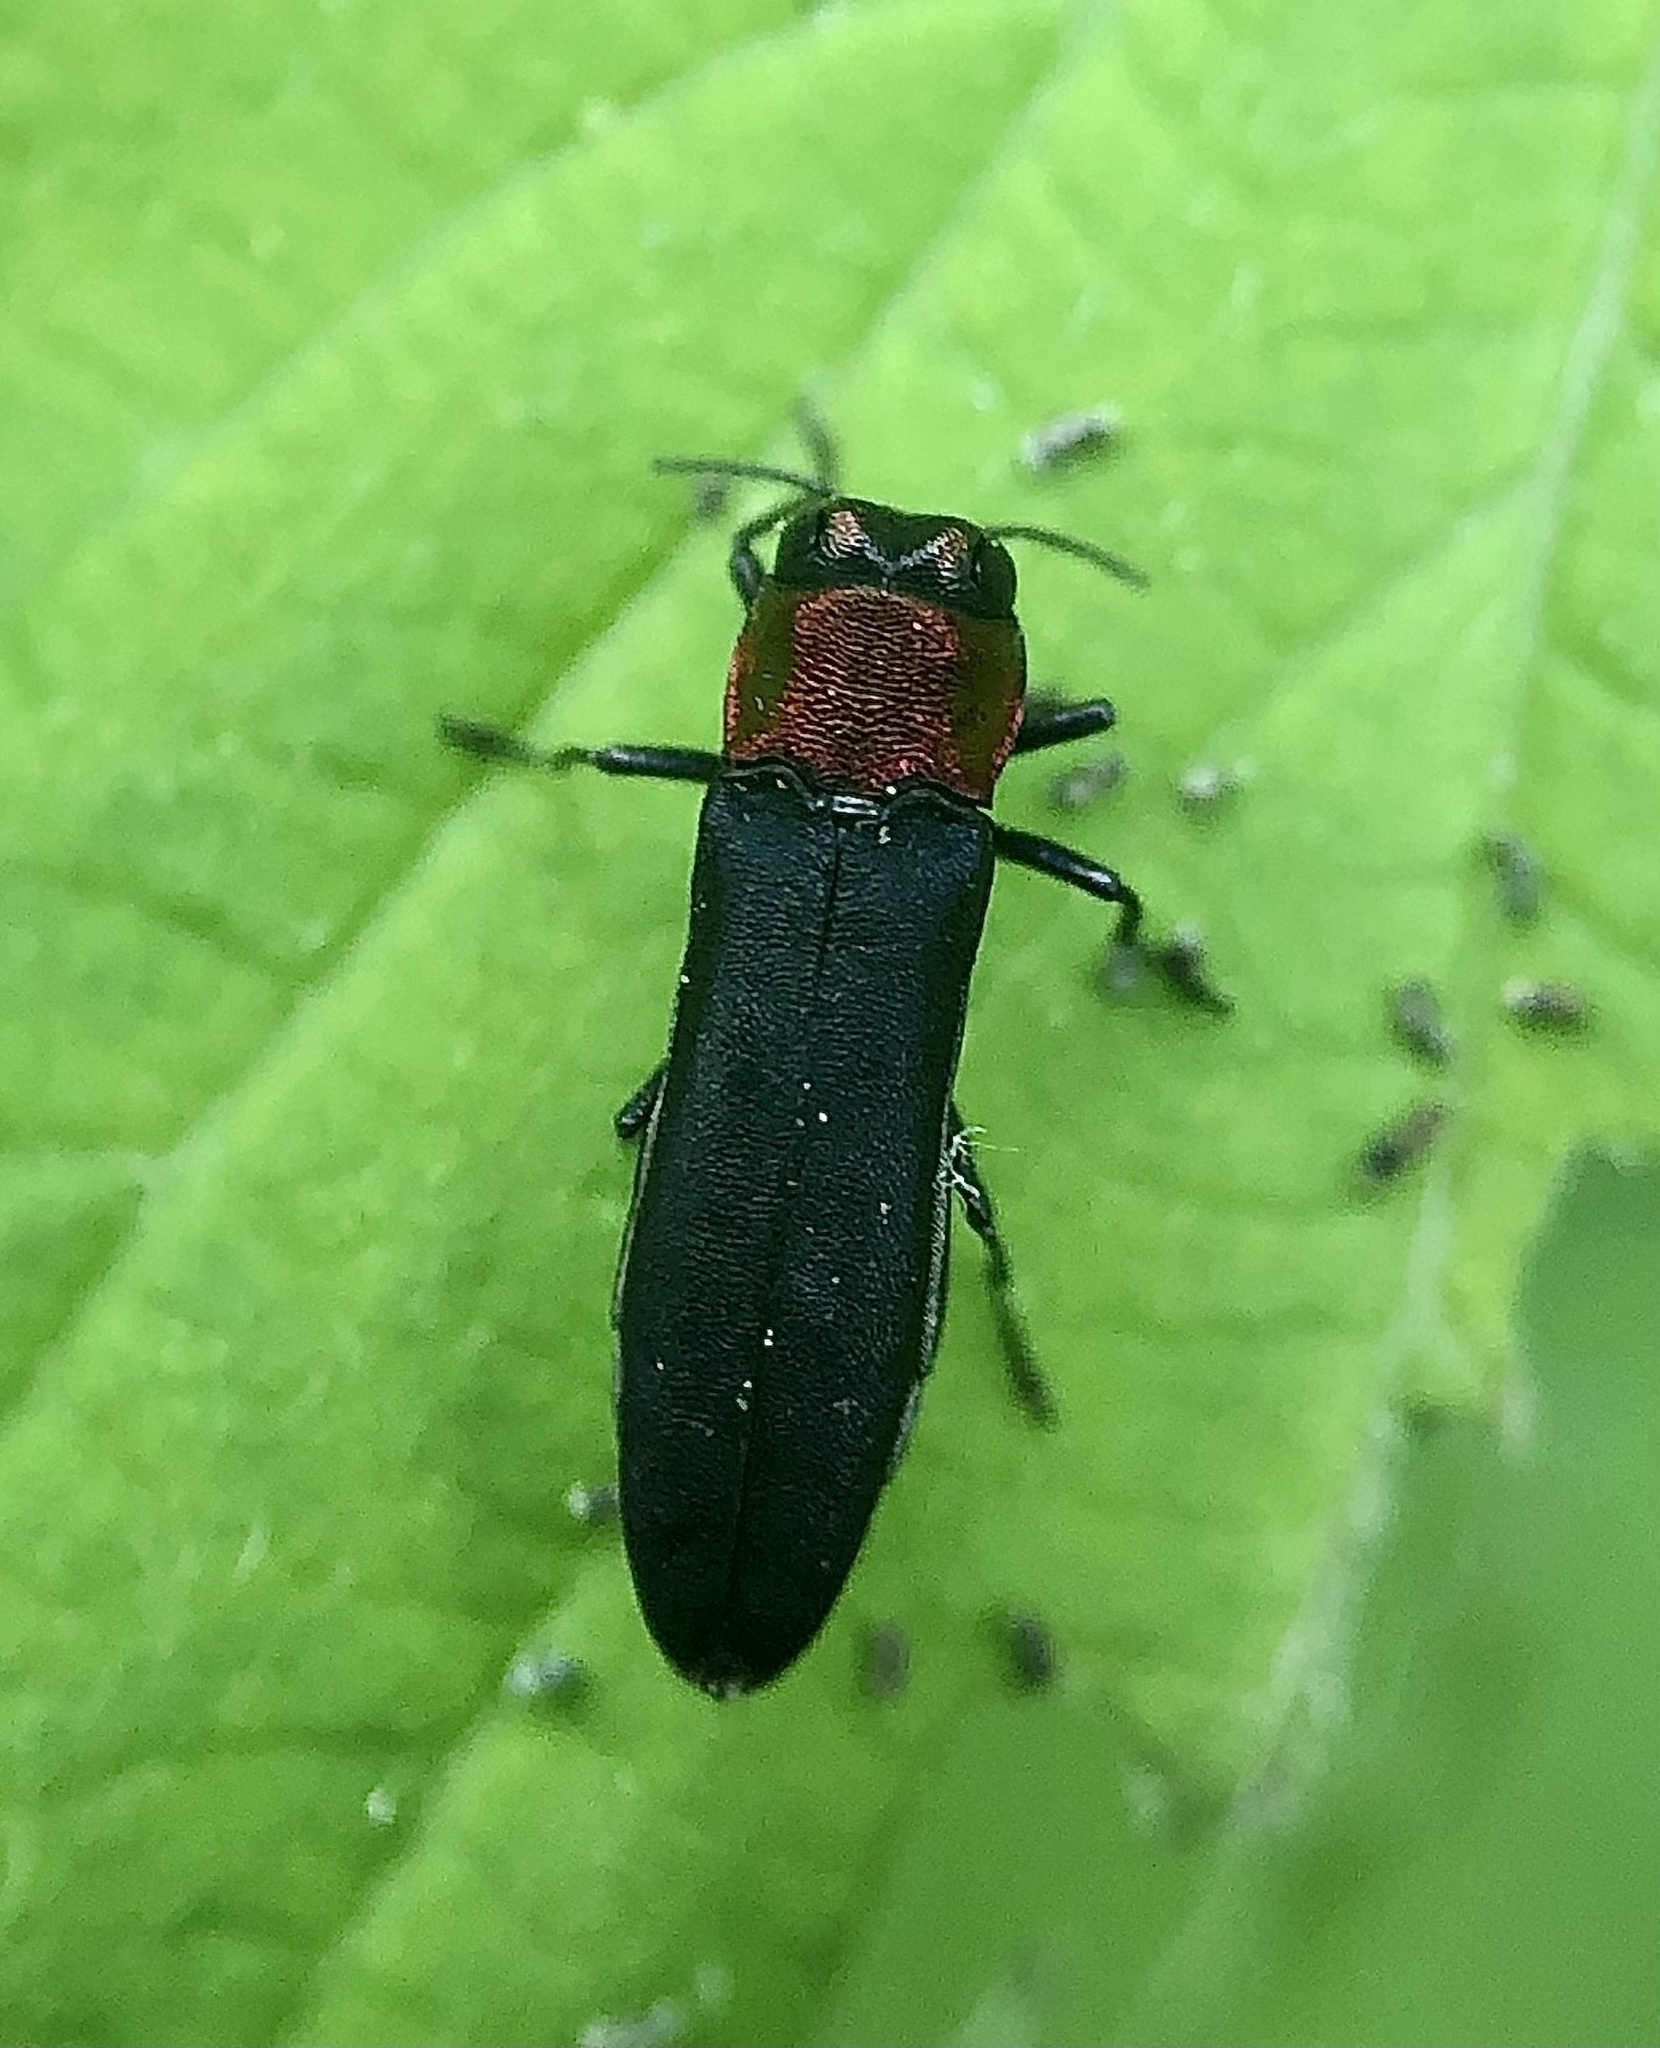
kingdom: Animalia
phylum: Arthropoda
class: Insecta
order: Coleoptera
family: Buprestidae
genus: Agrilus
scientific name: Agrilus ruficollis
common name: Red-necked cane borer beetle
